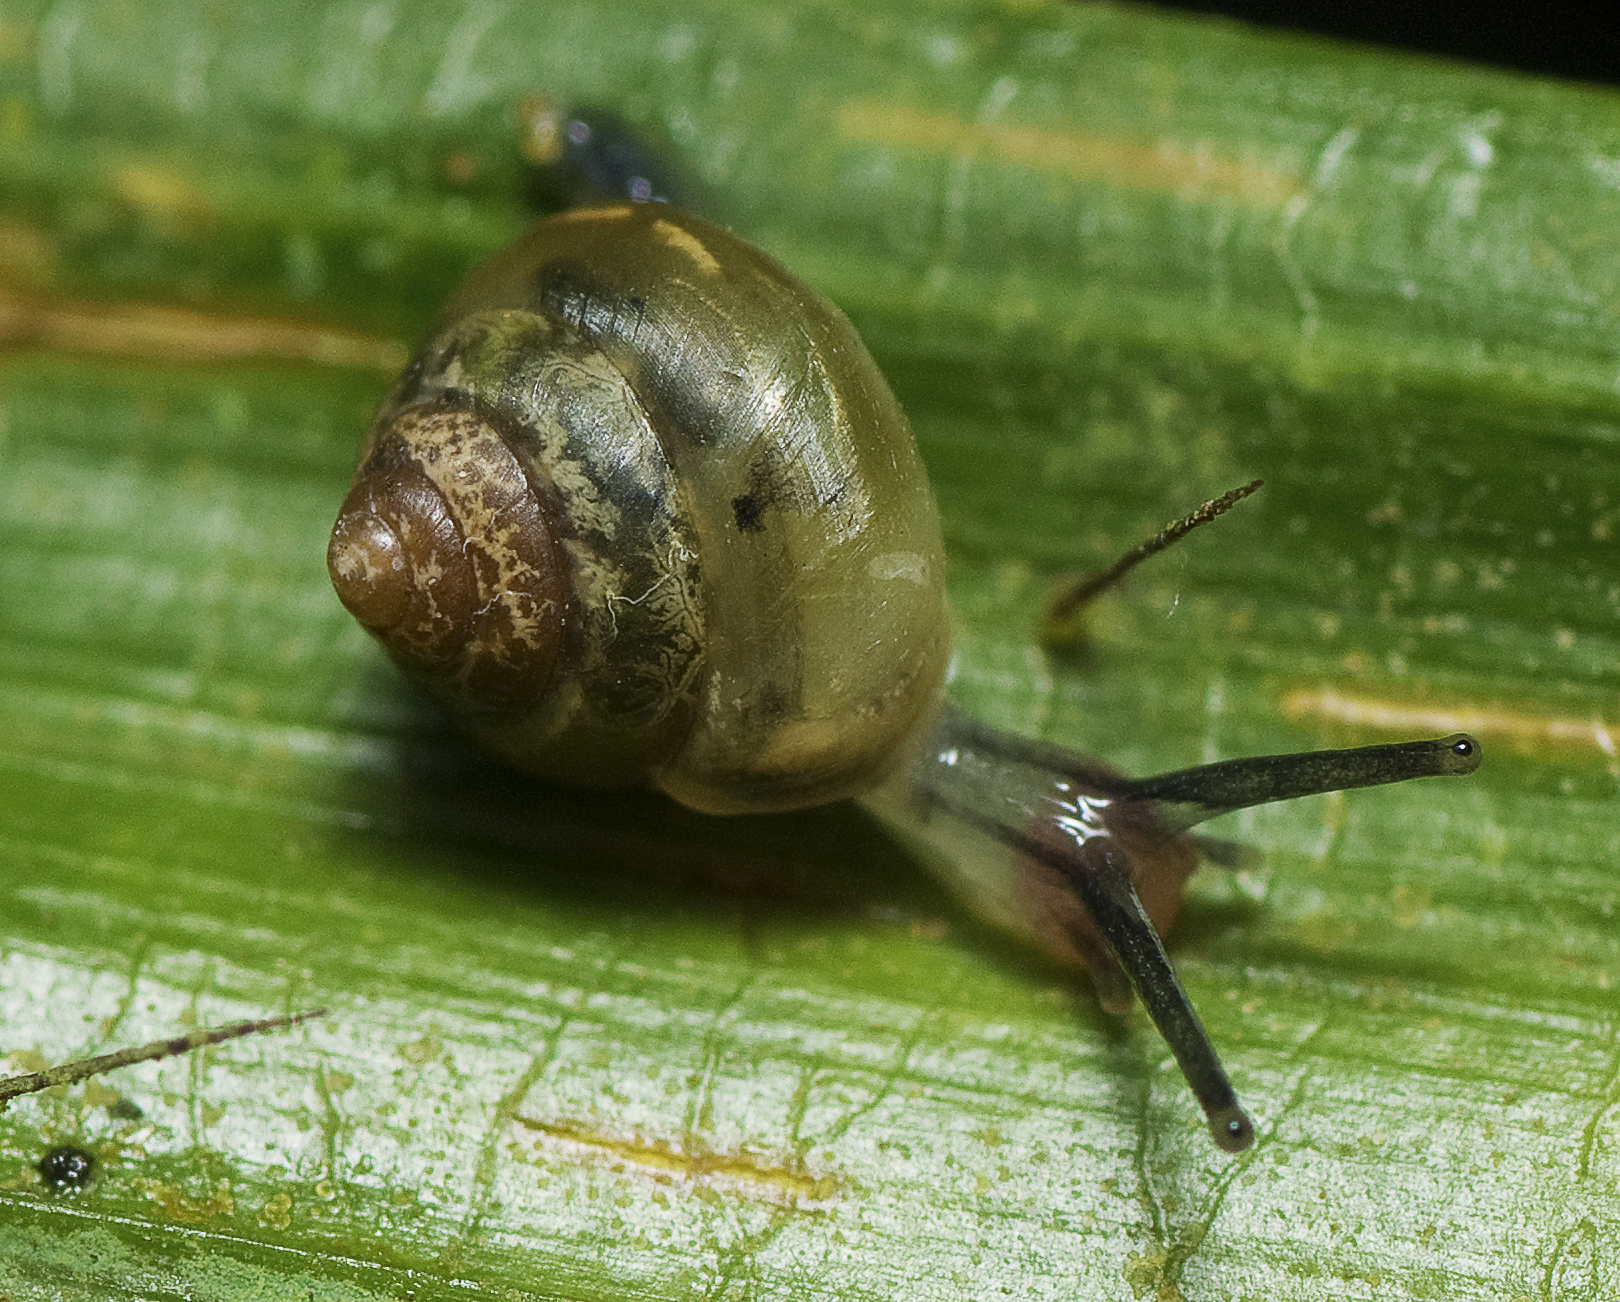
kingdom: Animalia
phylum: Mollusca
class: Gastropoda
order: Stylommatophora
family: Euconulidae
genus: Coneuplecta
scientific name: Coneuplecta calculosa
